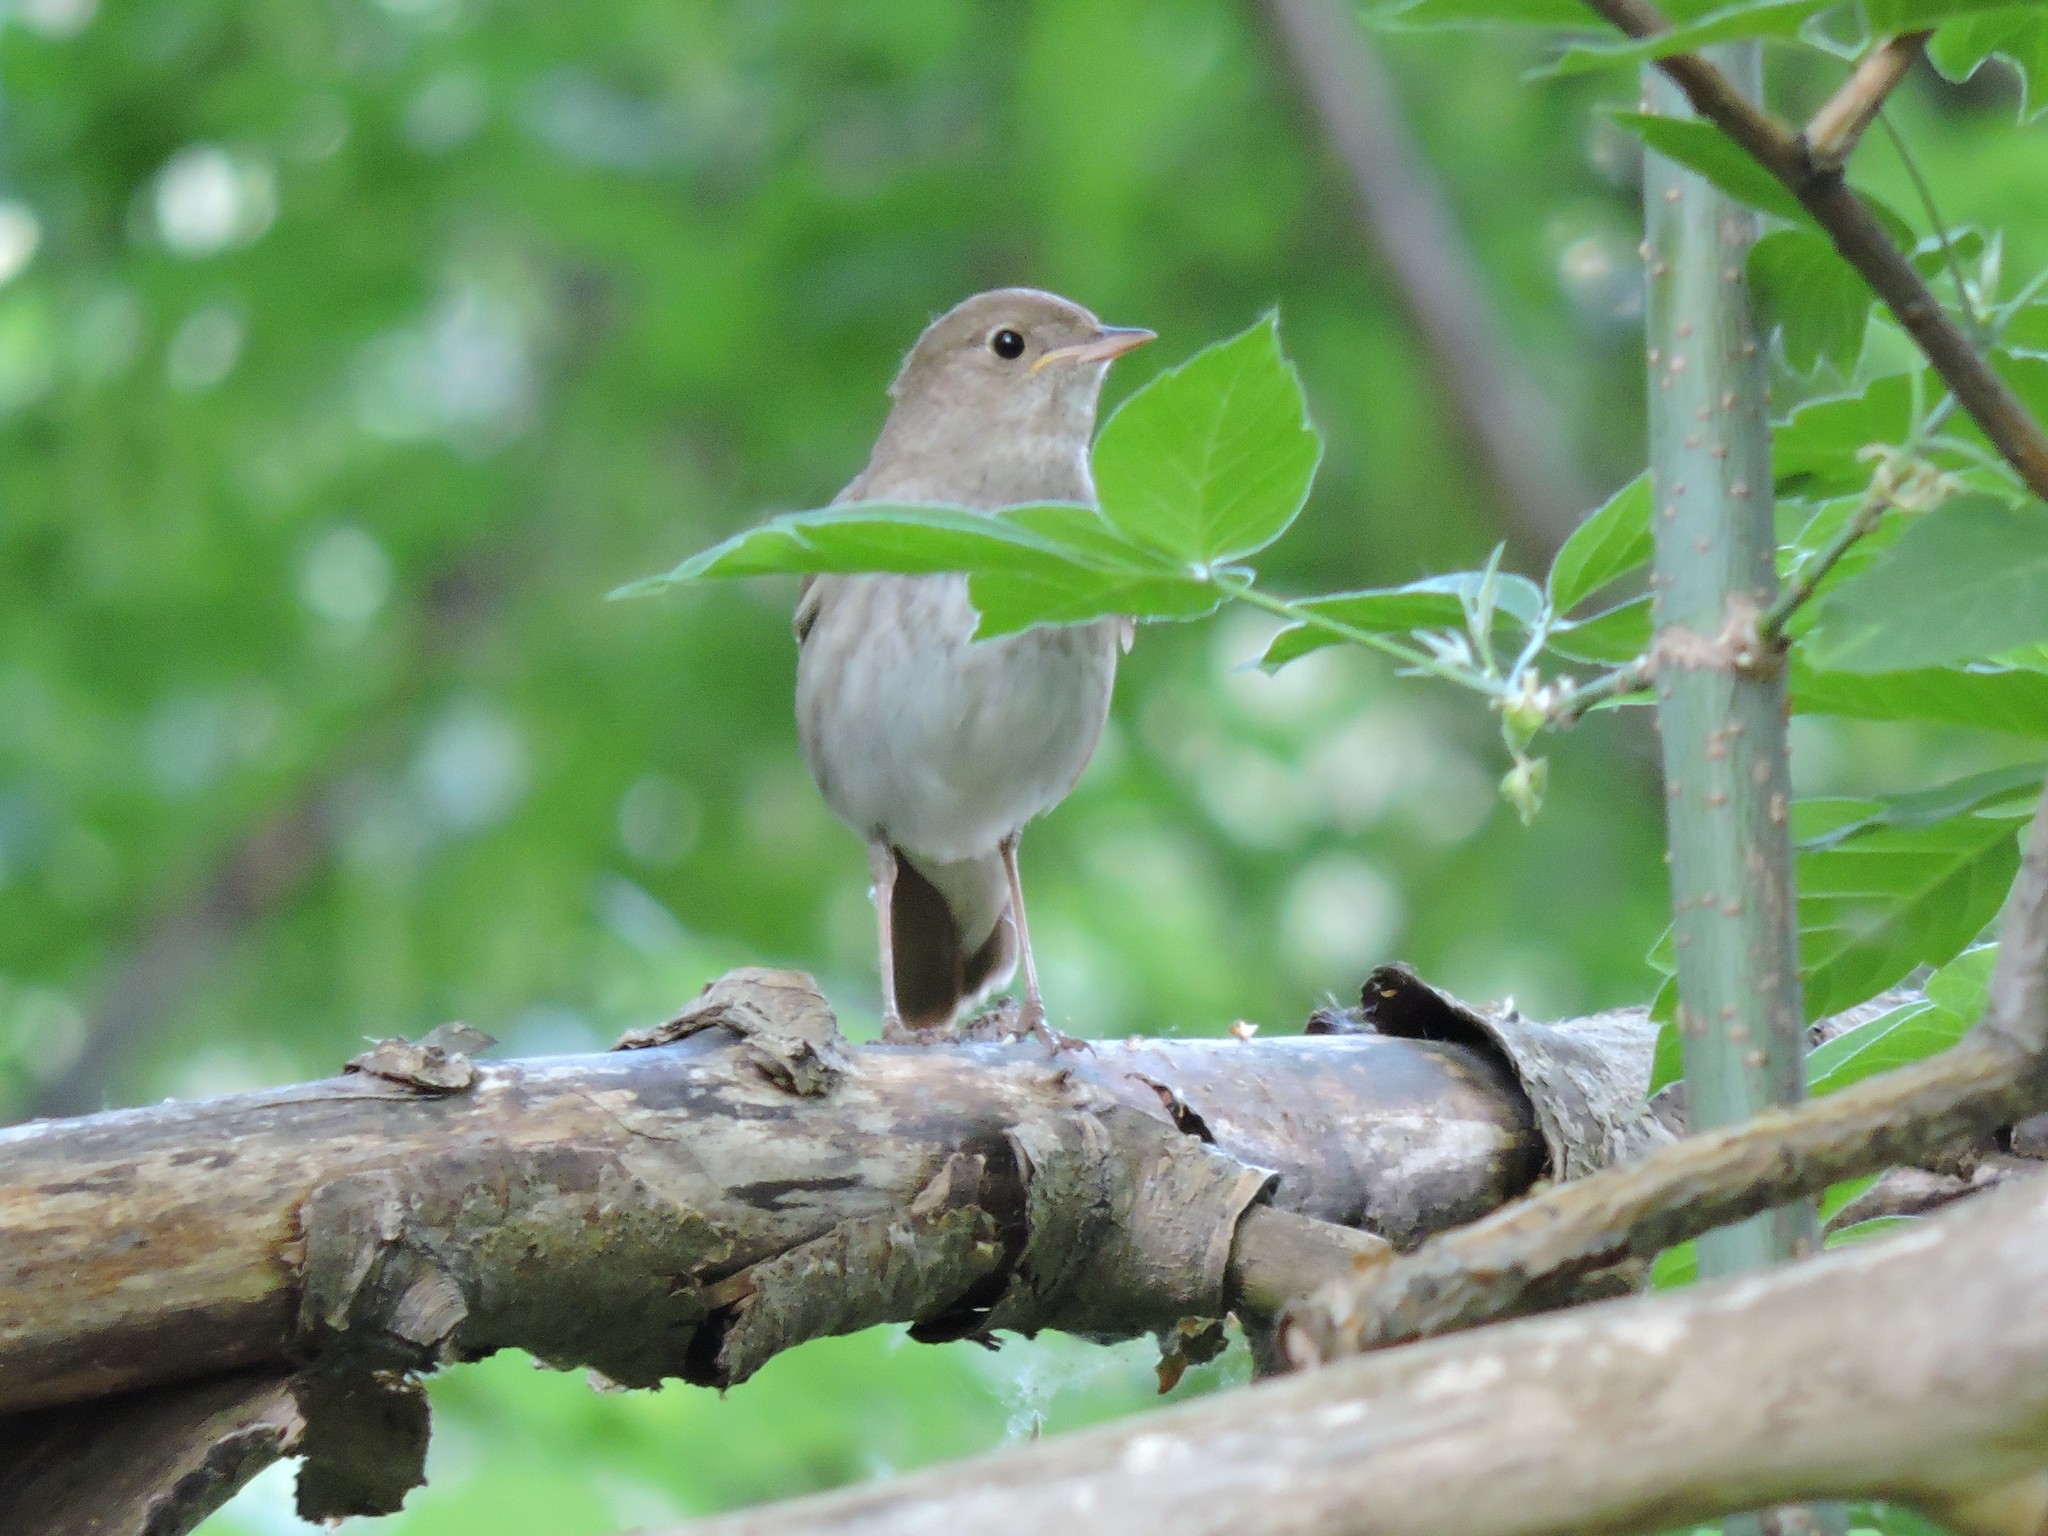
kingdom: Animalia
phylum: Chordata
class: Aves
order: Passeriformes
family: Muscicapidae
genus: Luscinia
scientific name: Luscinia luscinia
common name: Thrush nightingale
